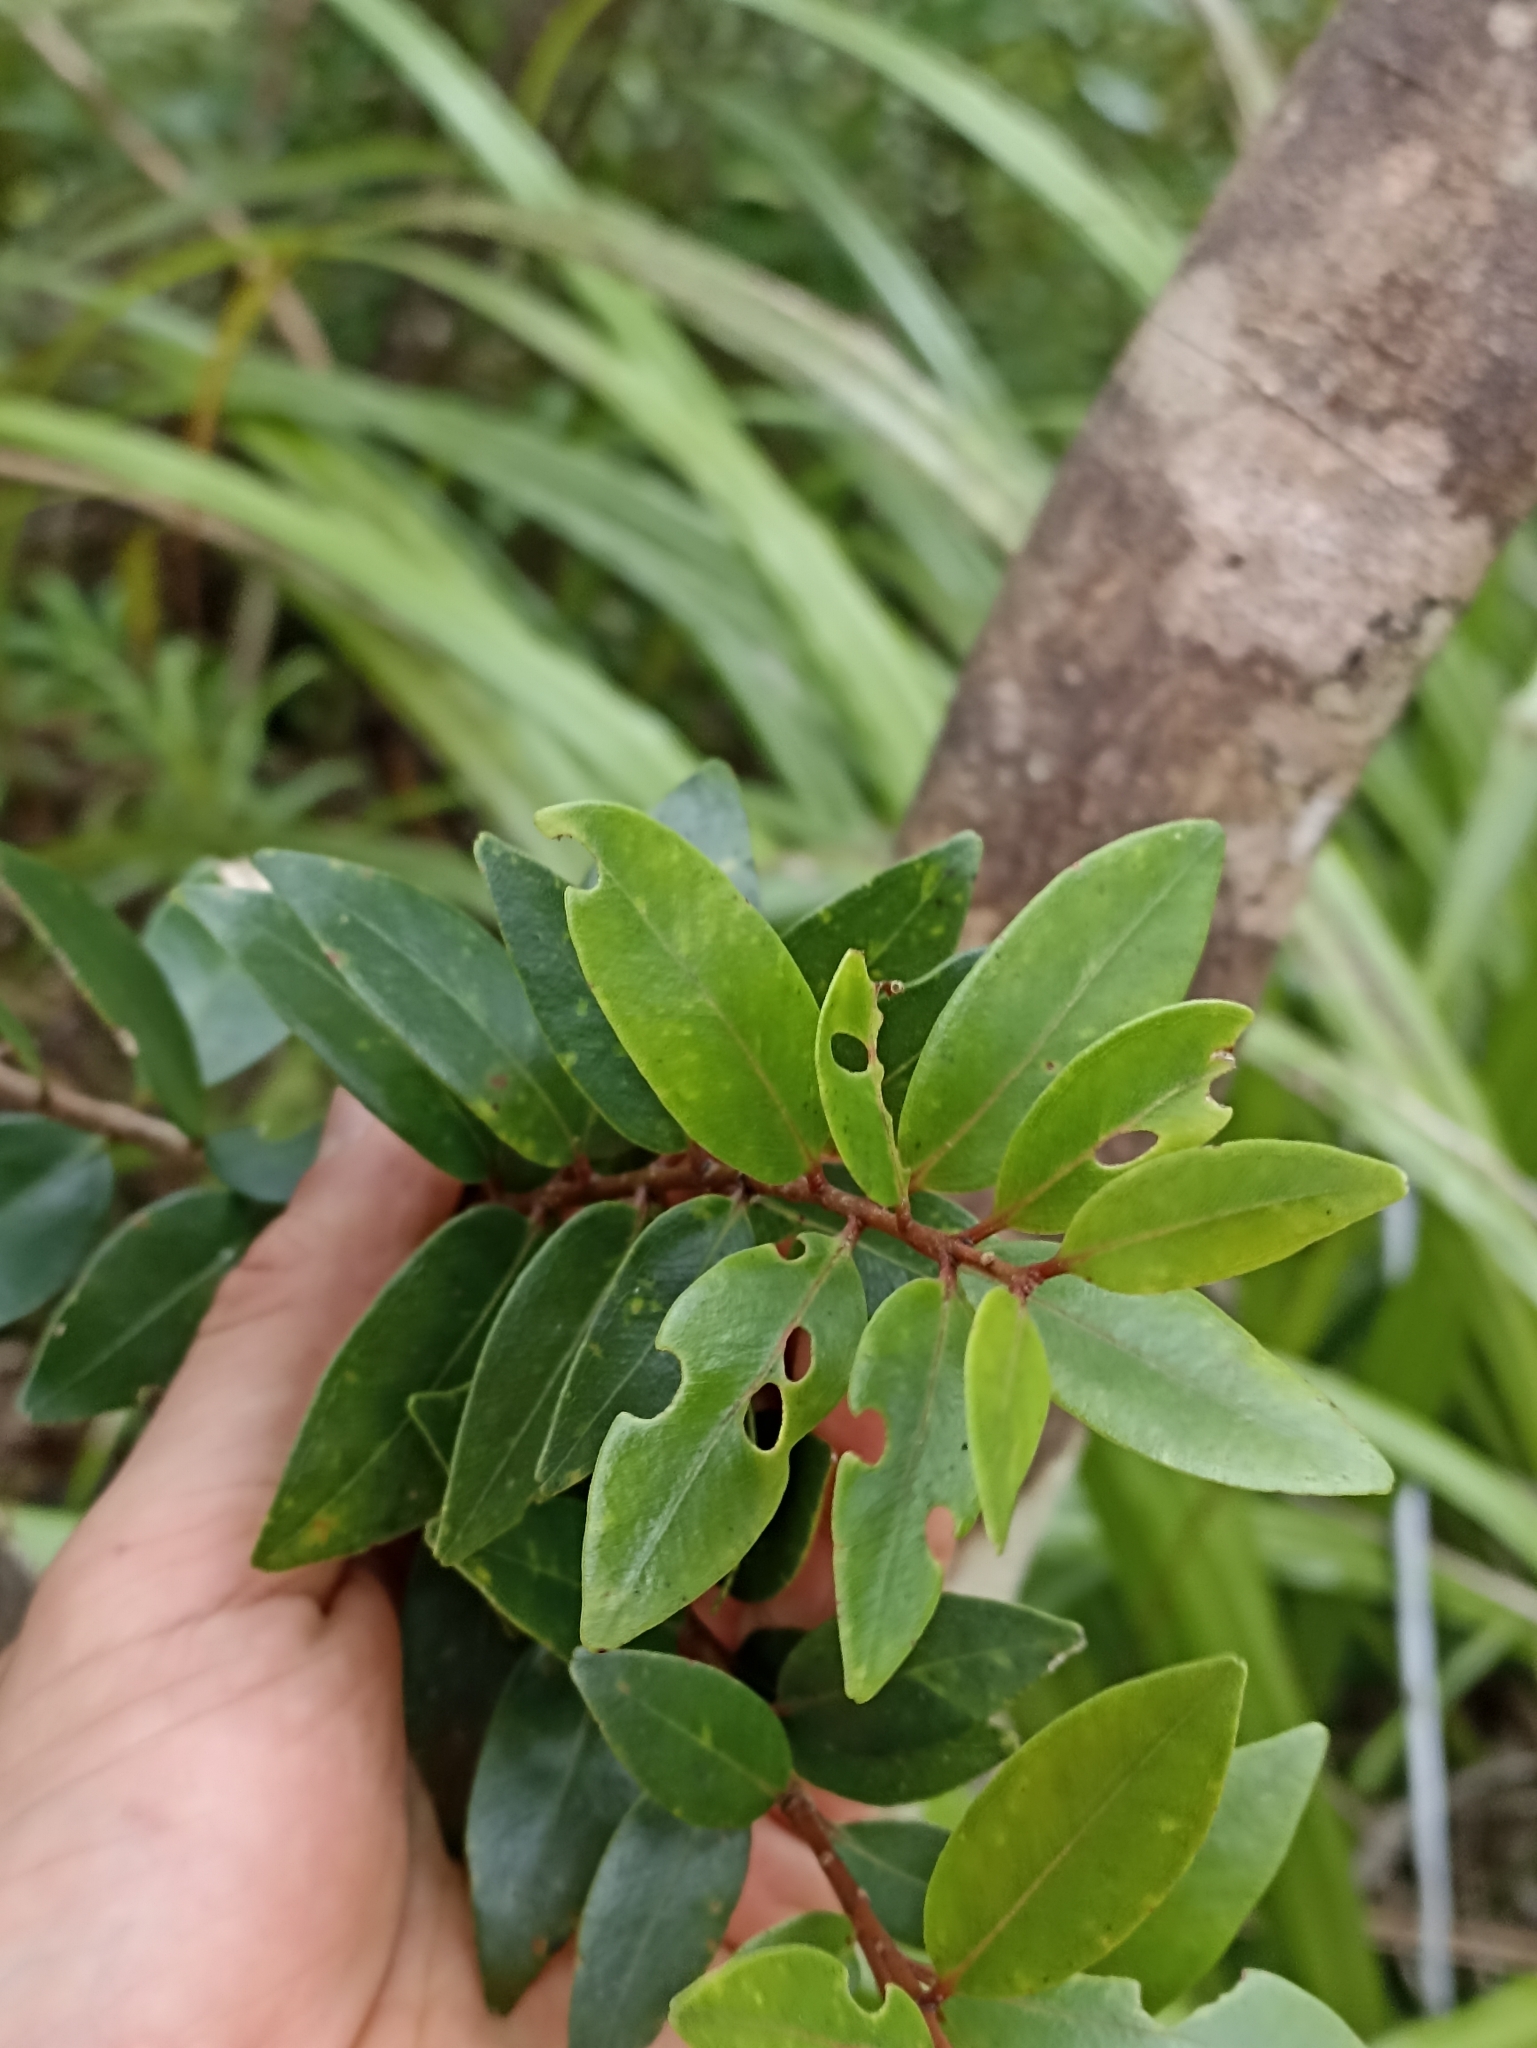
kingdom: Plantae
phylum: Tracheophyta
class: Magnoliopsida
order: Myrtales
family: Myrtaceae
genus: Metrosideros
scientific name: Metrosideros robusta
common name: Northern rata
